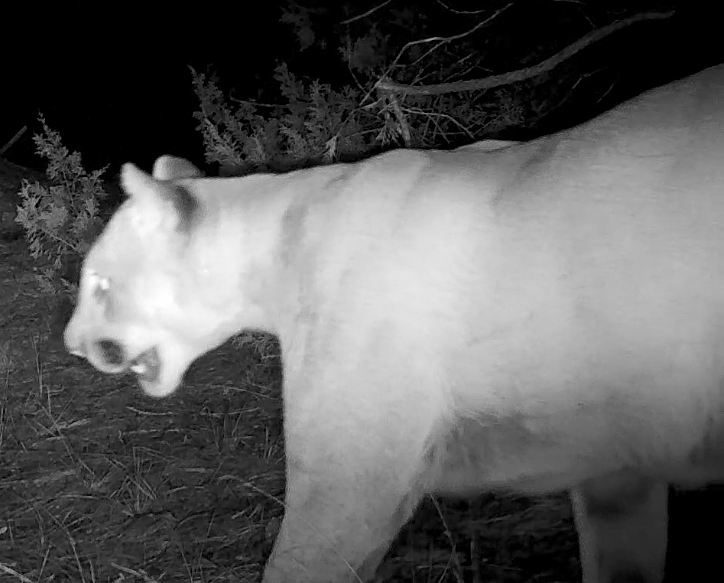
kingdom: Animalia
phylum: Chordata
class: Mammalia
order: Carnivora
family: Felidae
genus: Puma
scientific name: Puma concolor
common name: Puma
